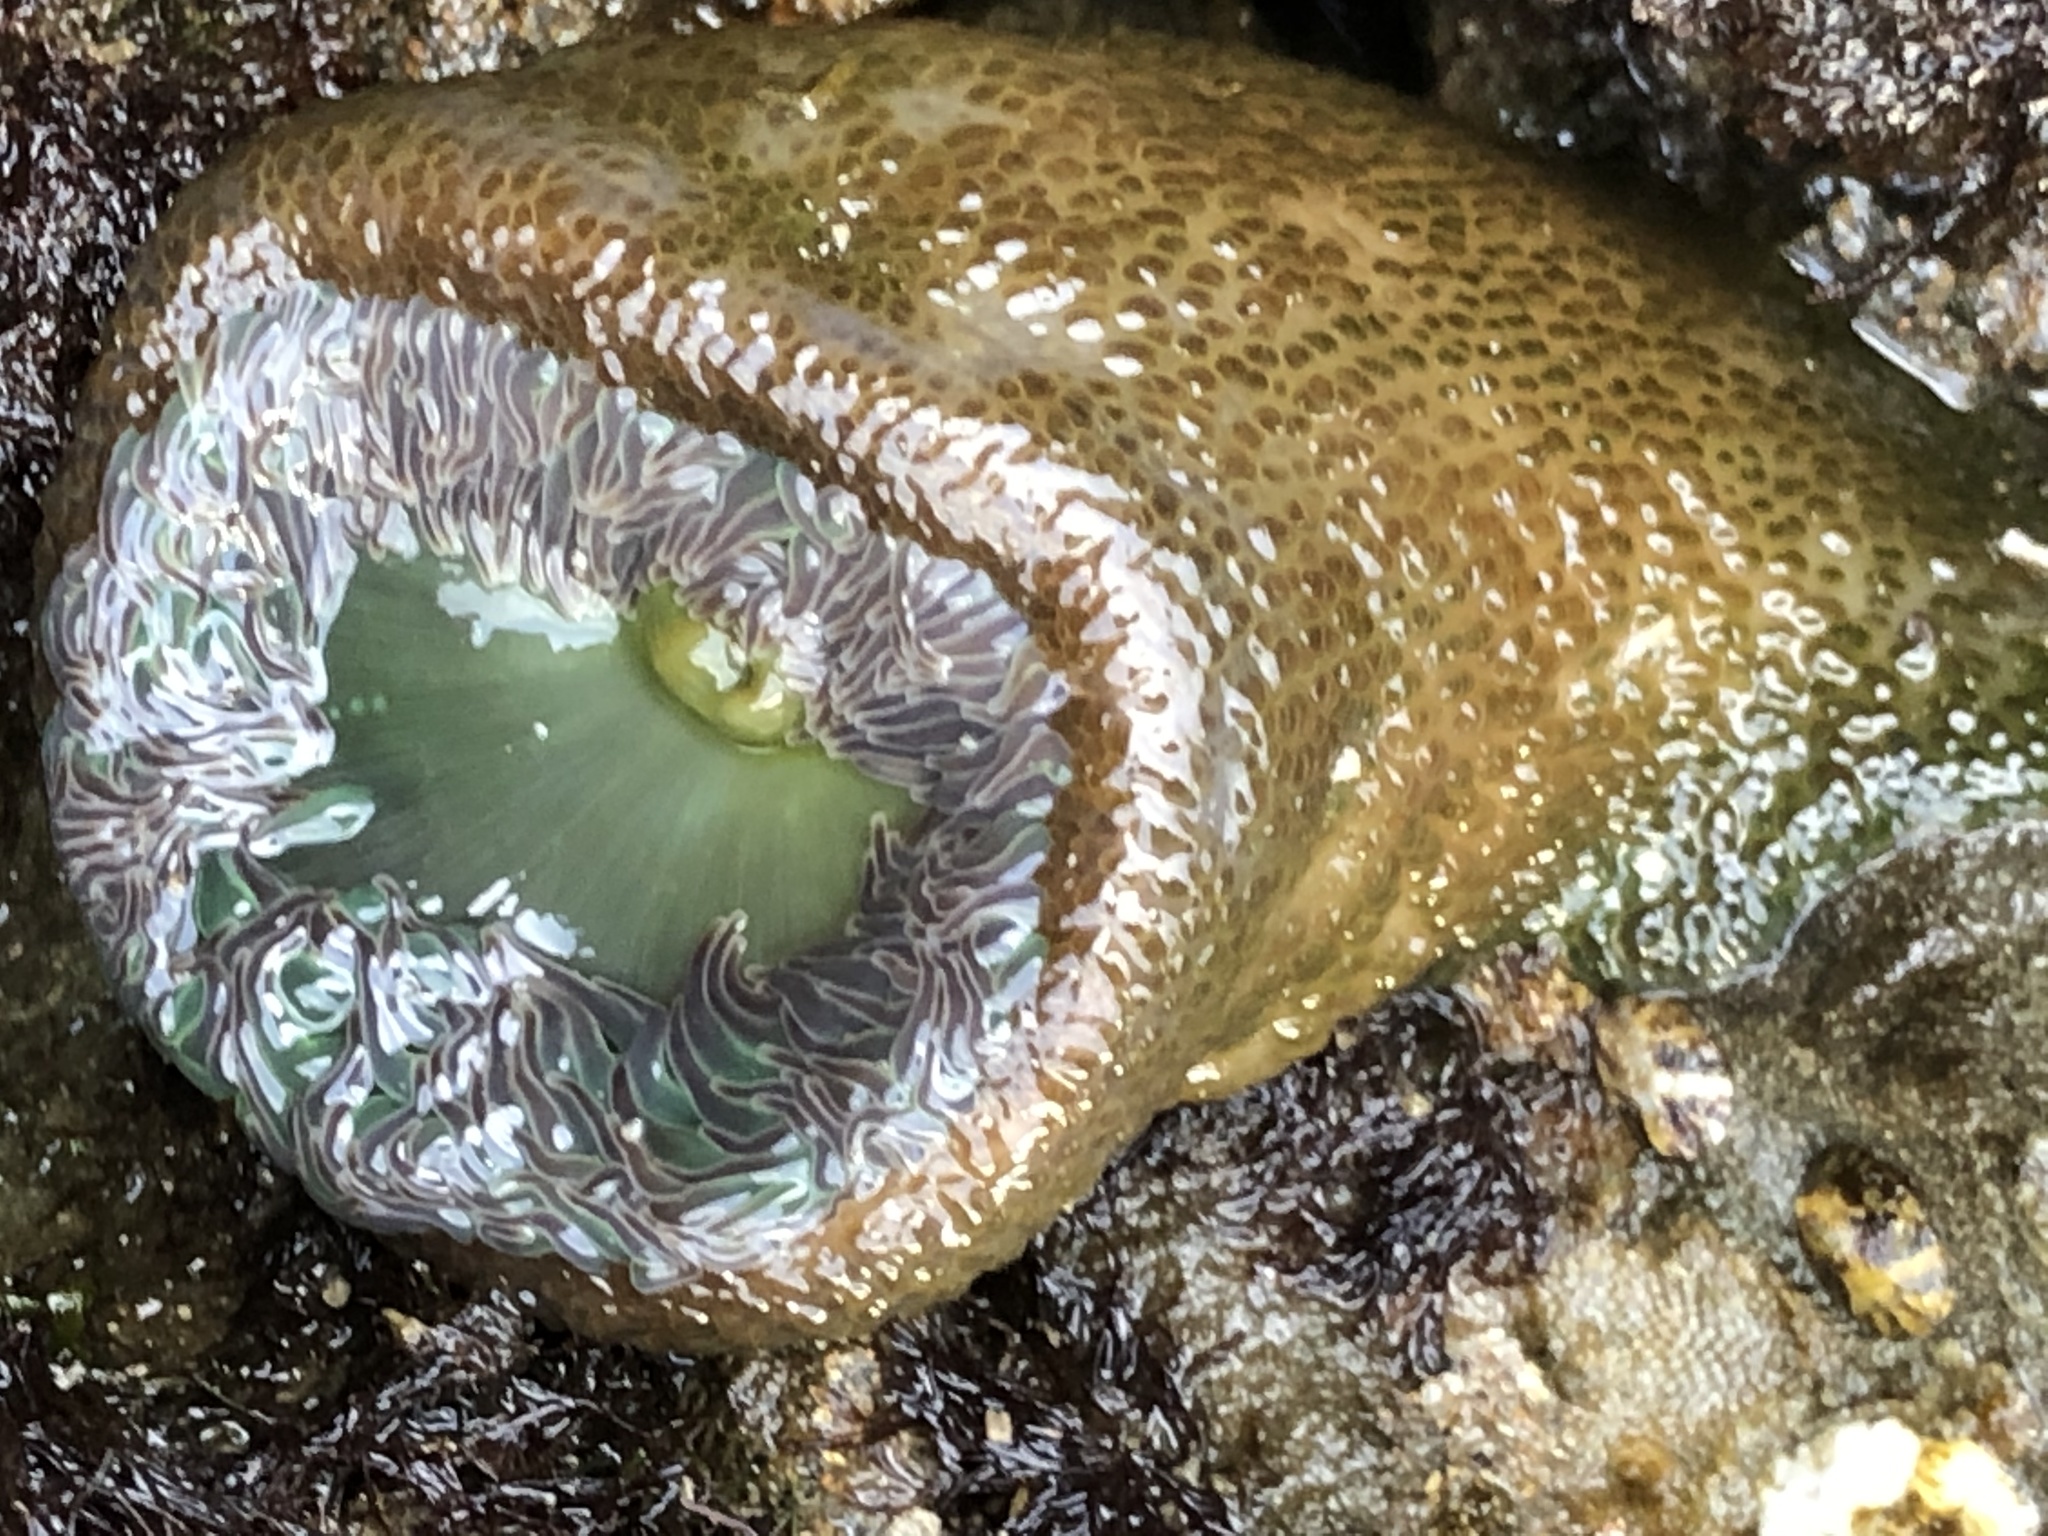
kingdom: Animalia
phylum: Cnidaria
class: Anthozoa
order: Actiniaria
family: Actiniidae
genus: Anthopleura
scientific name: Anthopleura xanthogrammica
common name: Giant green anemone
